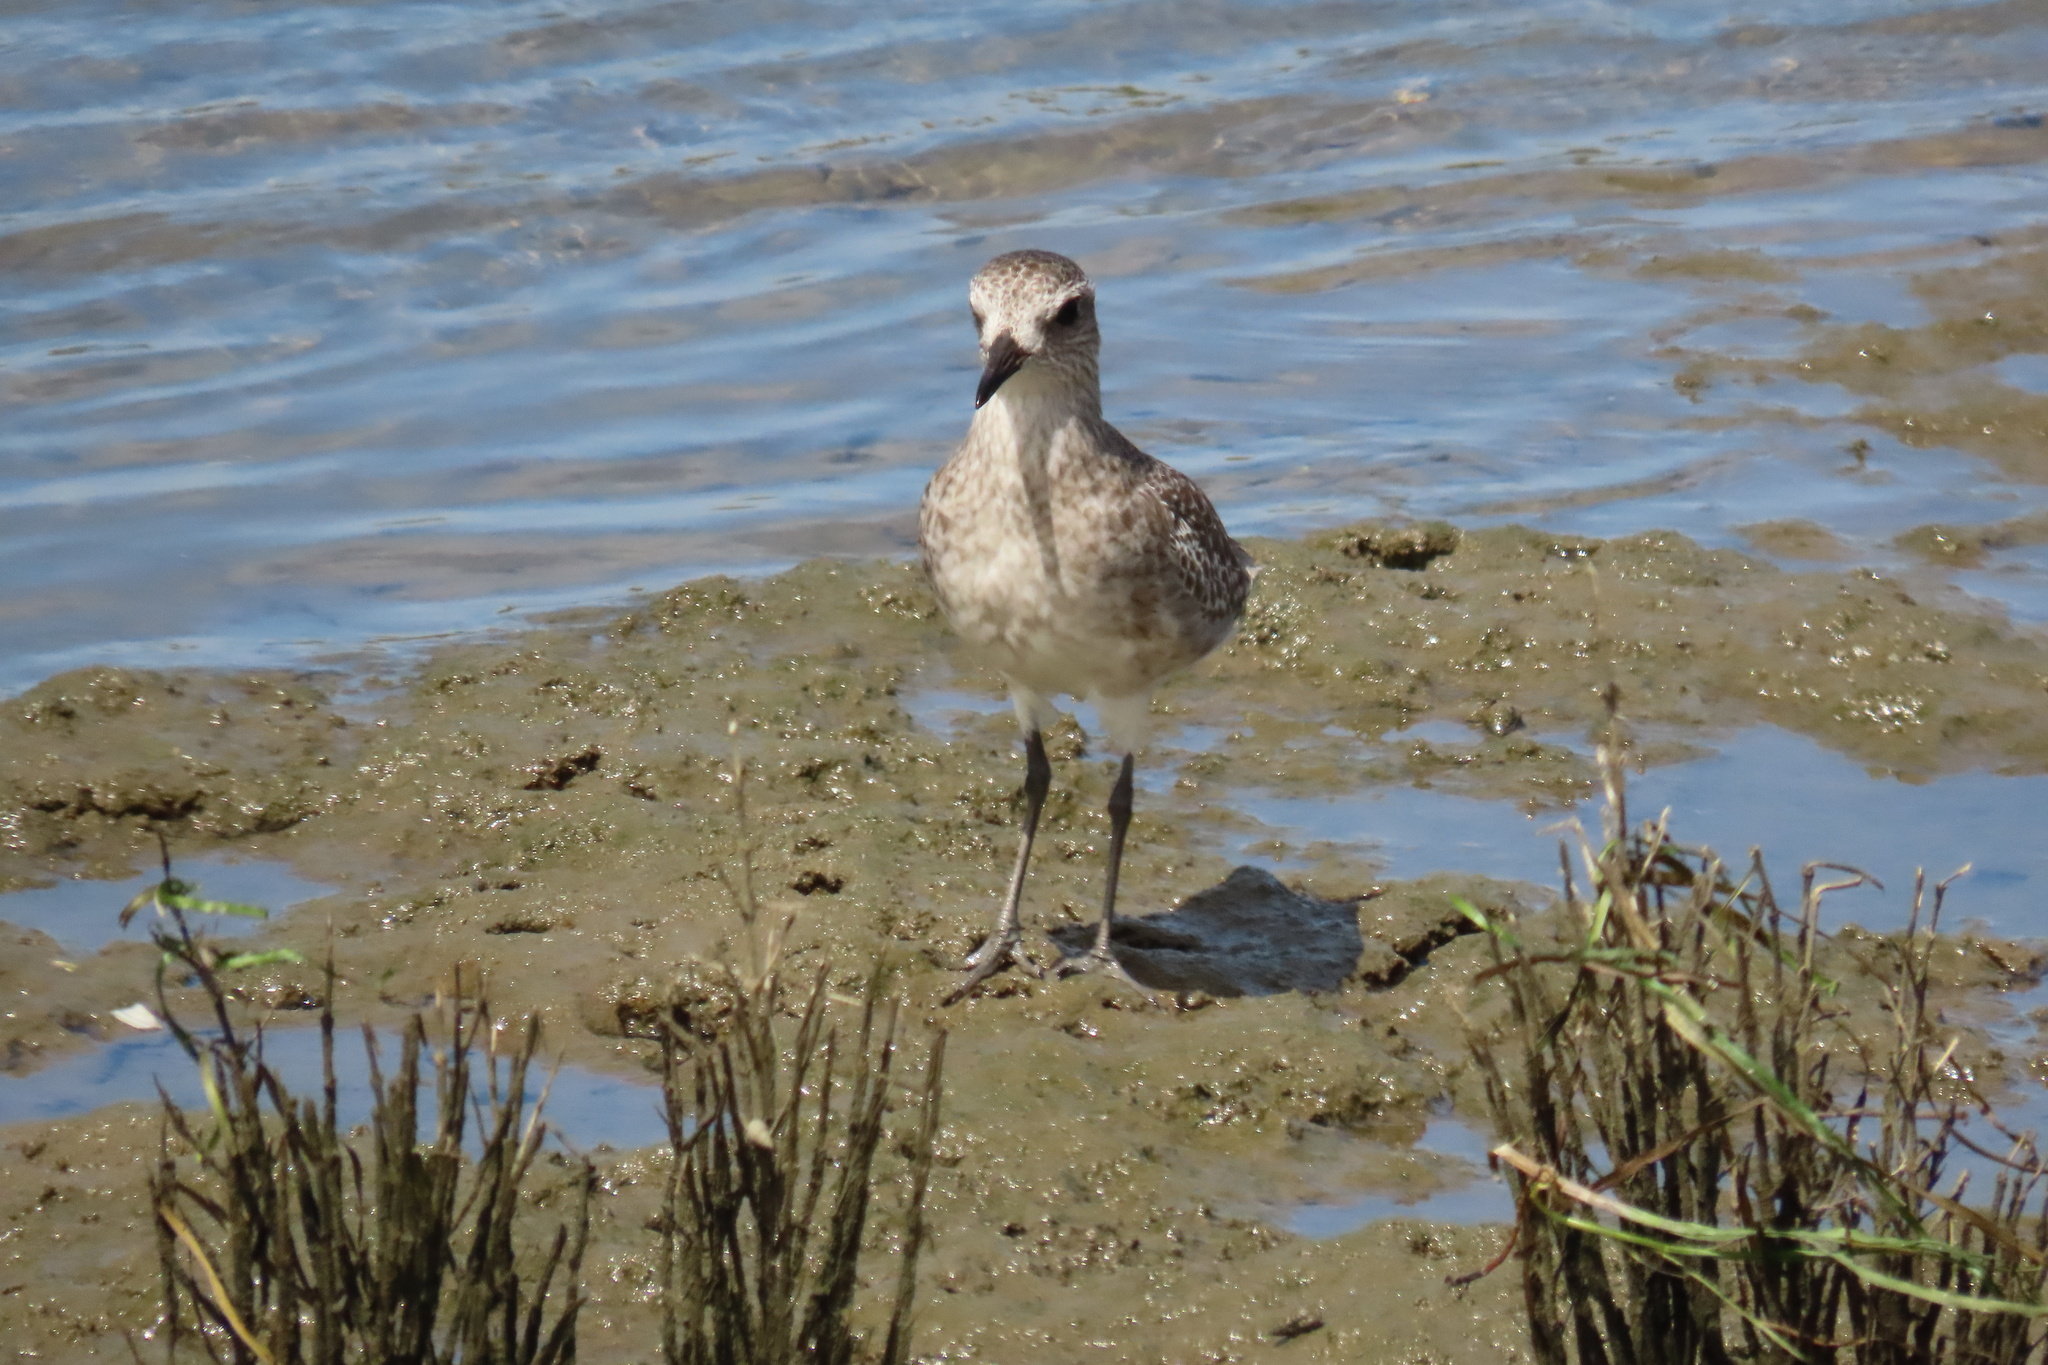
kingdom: Animalia
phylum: Chordata
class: Aves
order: Charadriiformes
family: Charadriidae
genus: Pluvialis
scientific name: Pluvialis squatarola
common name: Grey plover
